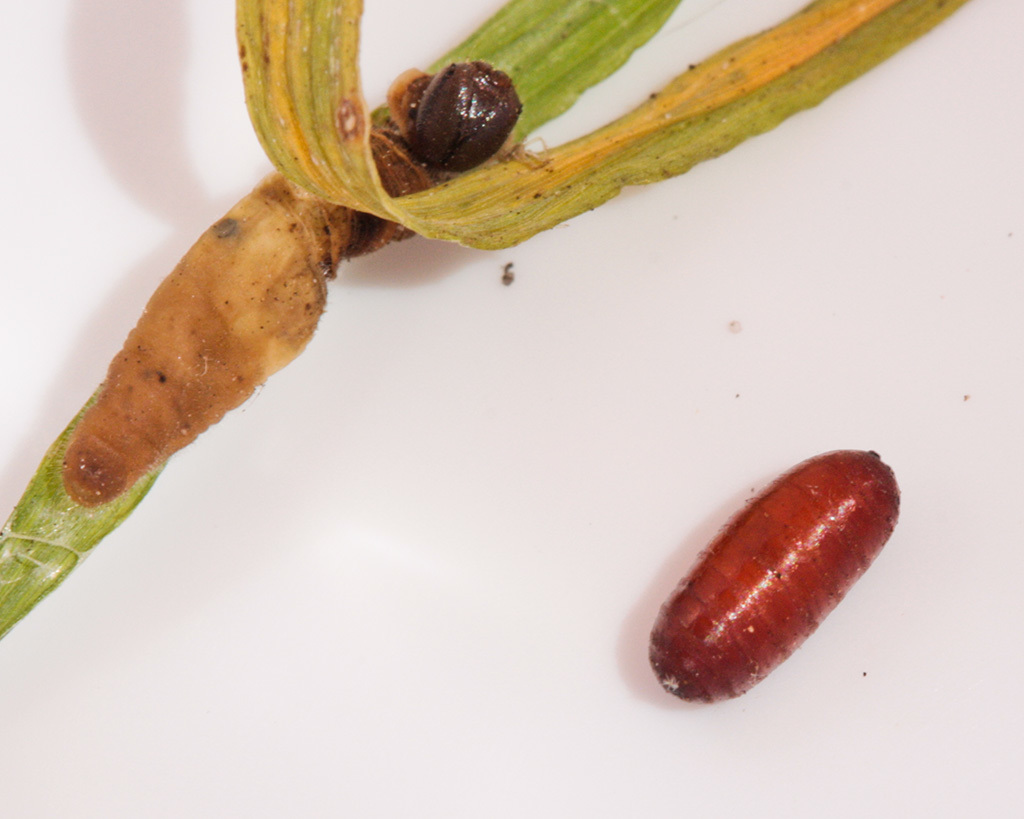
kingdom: Animalia
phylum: Arthropoda
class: Insecta
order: Lepidoptera
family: Hesperiidae
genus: Metisella
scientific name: Metisella metis
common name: Western gold-spotted sylph
